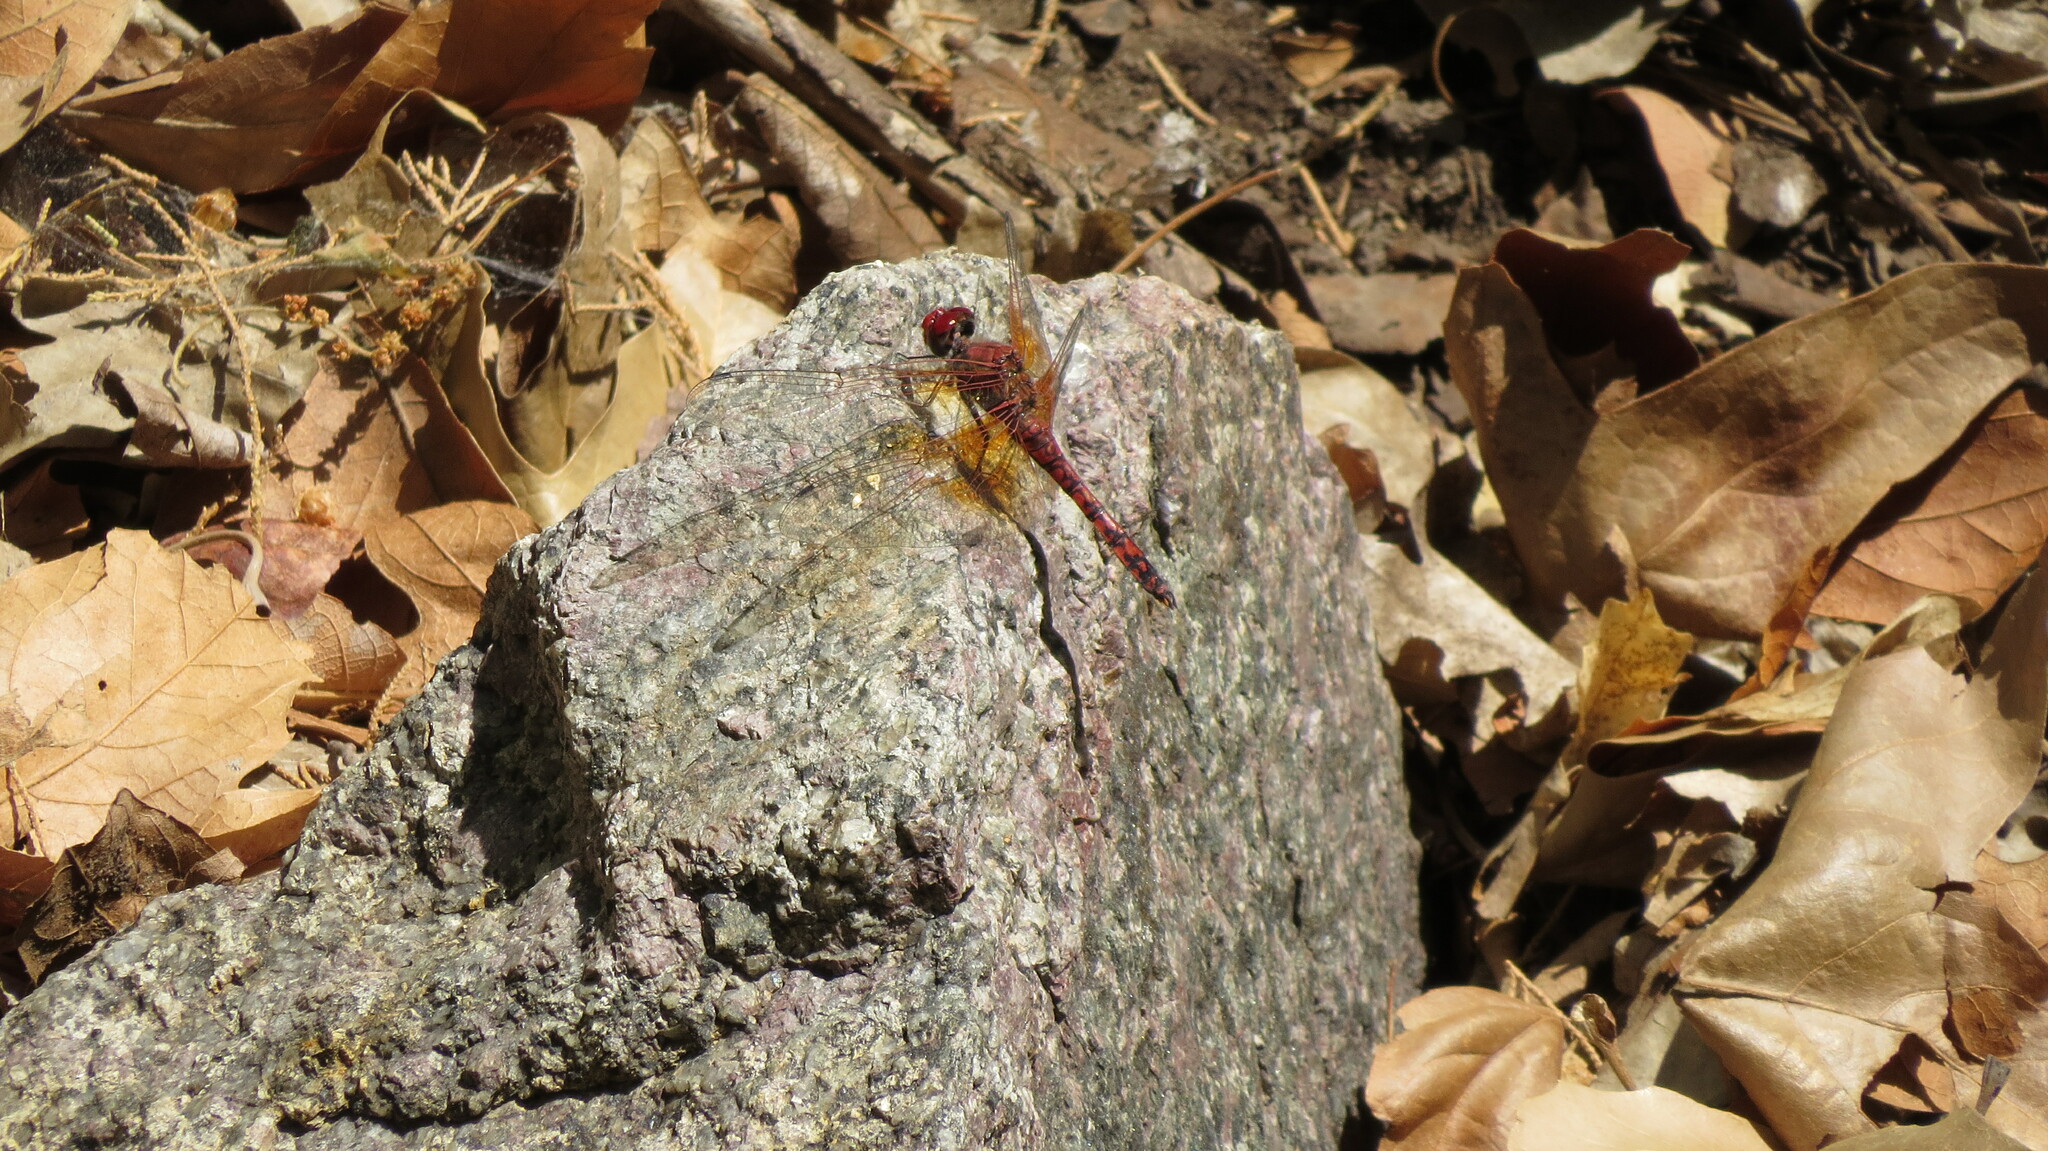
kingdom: Animalia
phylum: Arthropoda
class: Insecta
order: Odonata
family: Libellulidae
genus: Paltothemis
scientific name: Paltothemis lineatipes
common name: Red rock skimmer
